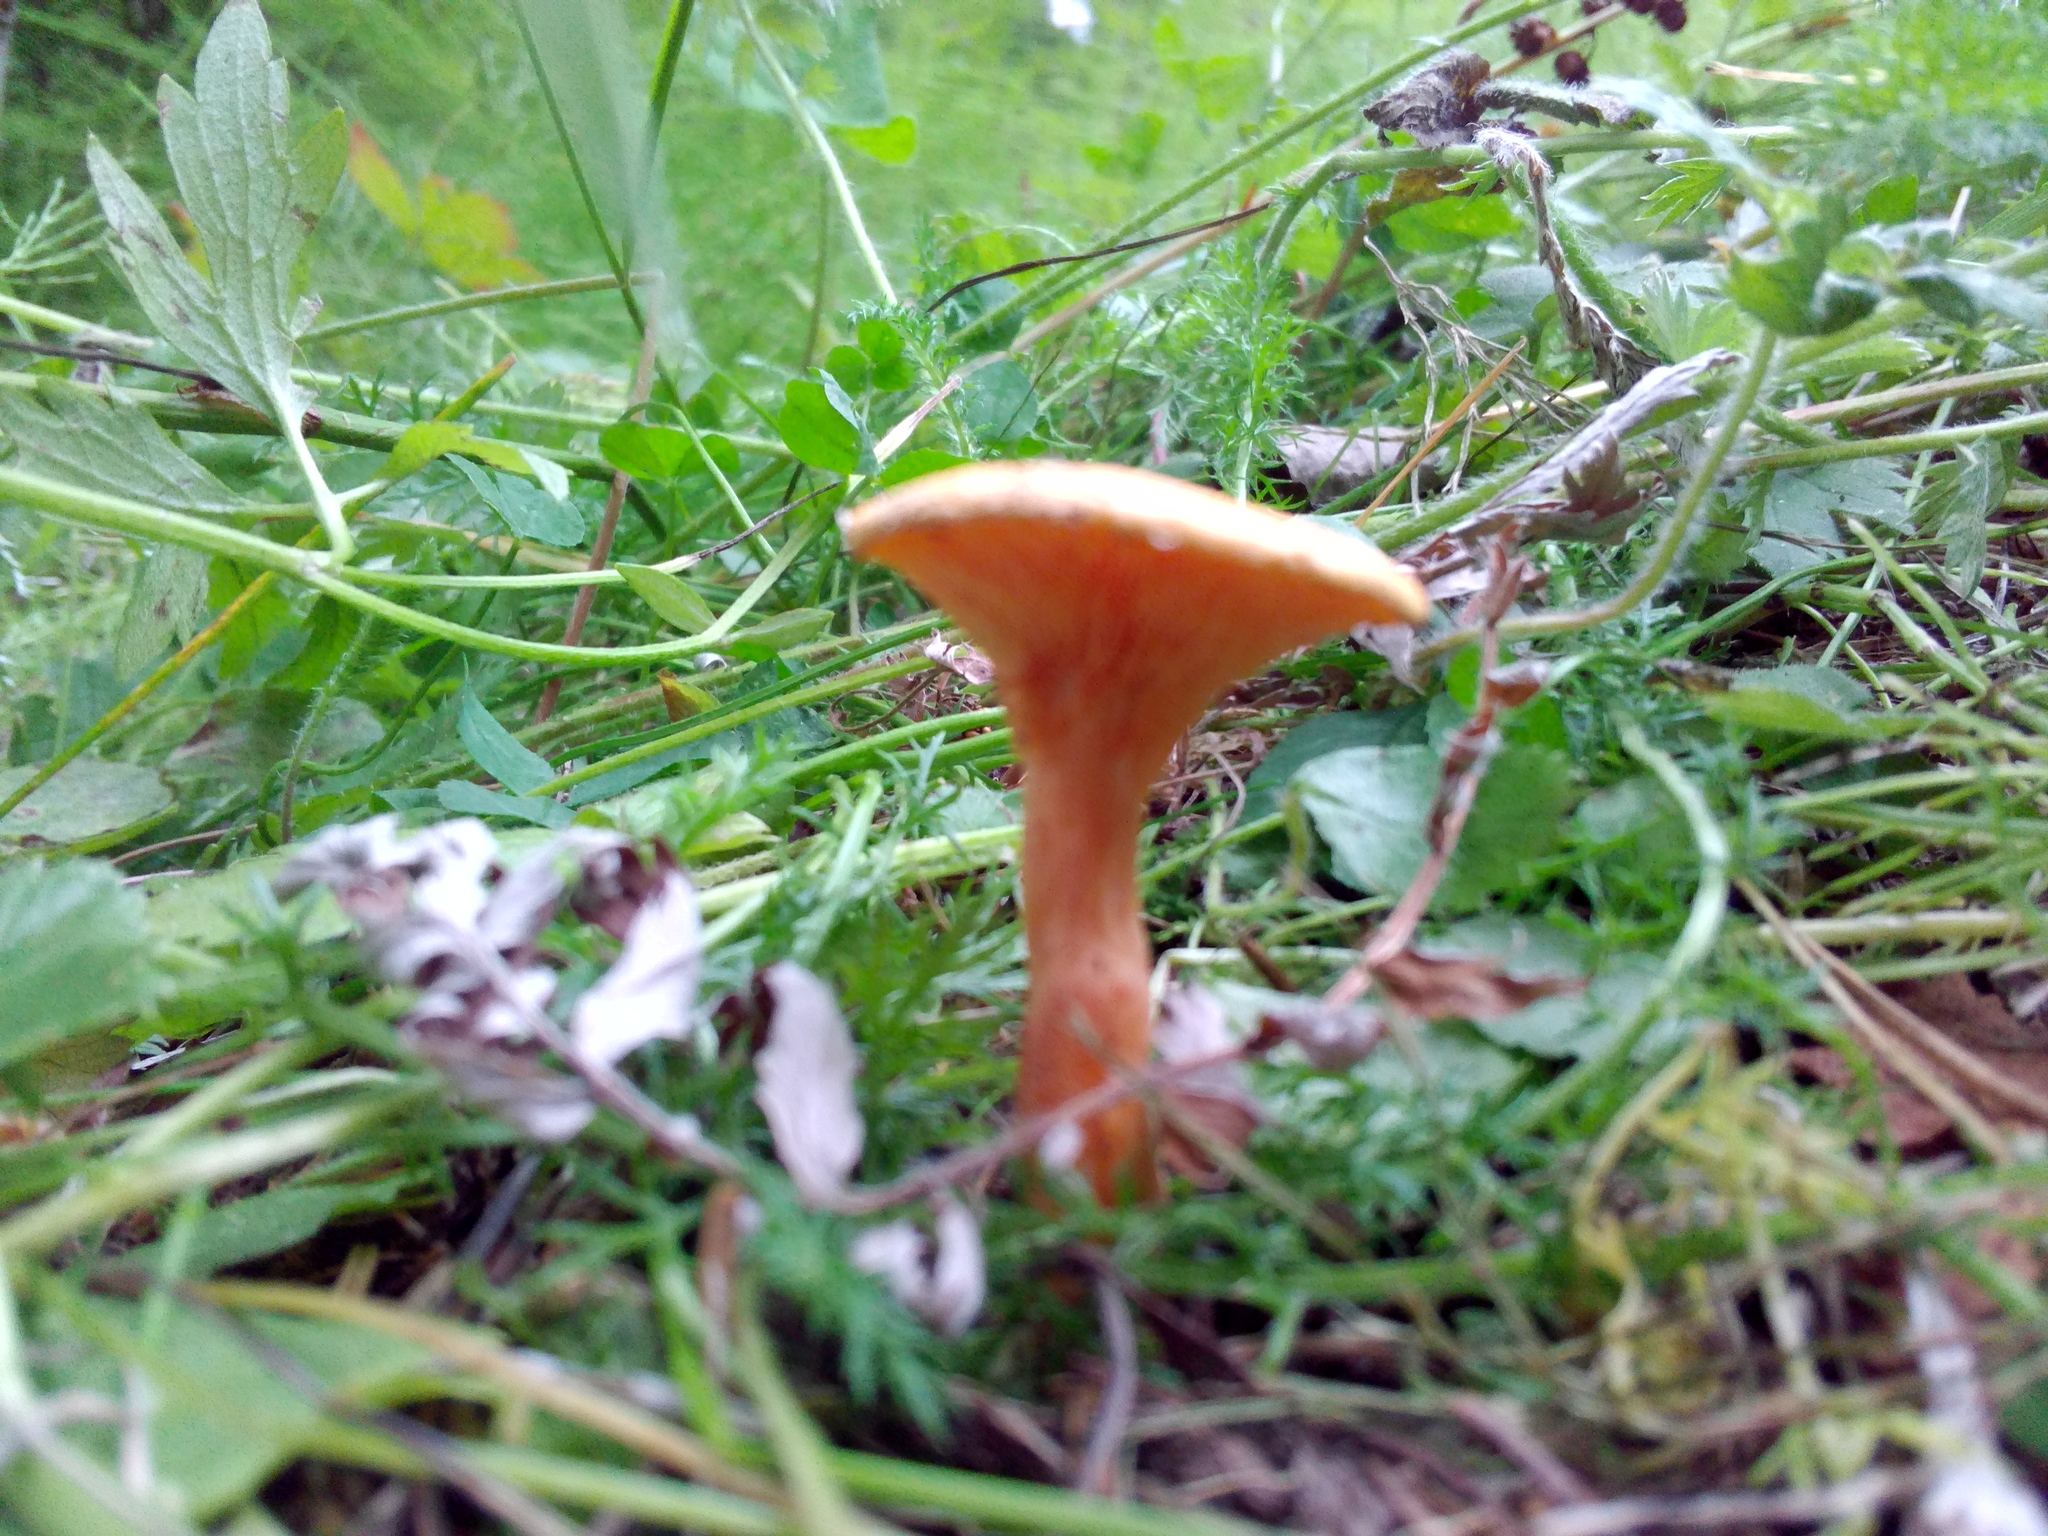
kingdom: Fungi
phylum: Basidiomycota
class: Agaricomycetes
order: Boletales
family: Hygrophoropsidaceae
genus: Hygrophoropsis
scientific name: Hygrophoropsis aurantiaca
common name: False chanterelle
